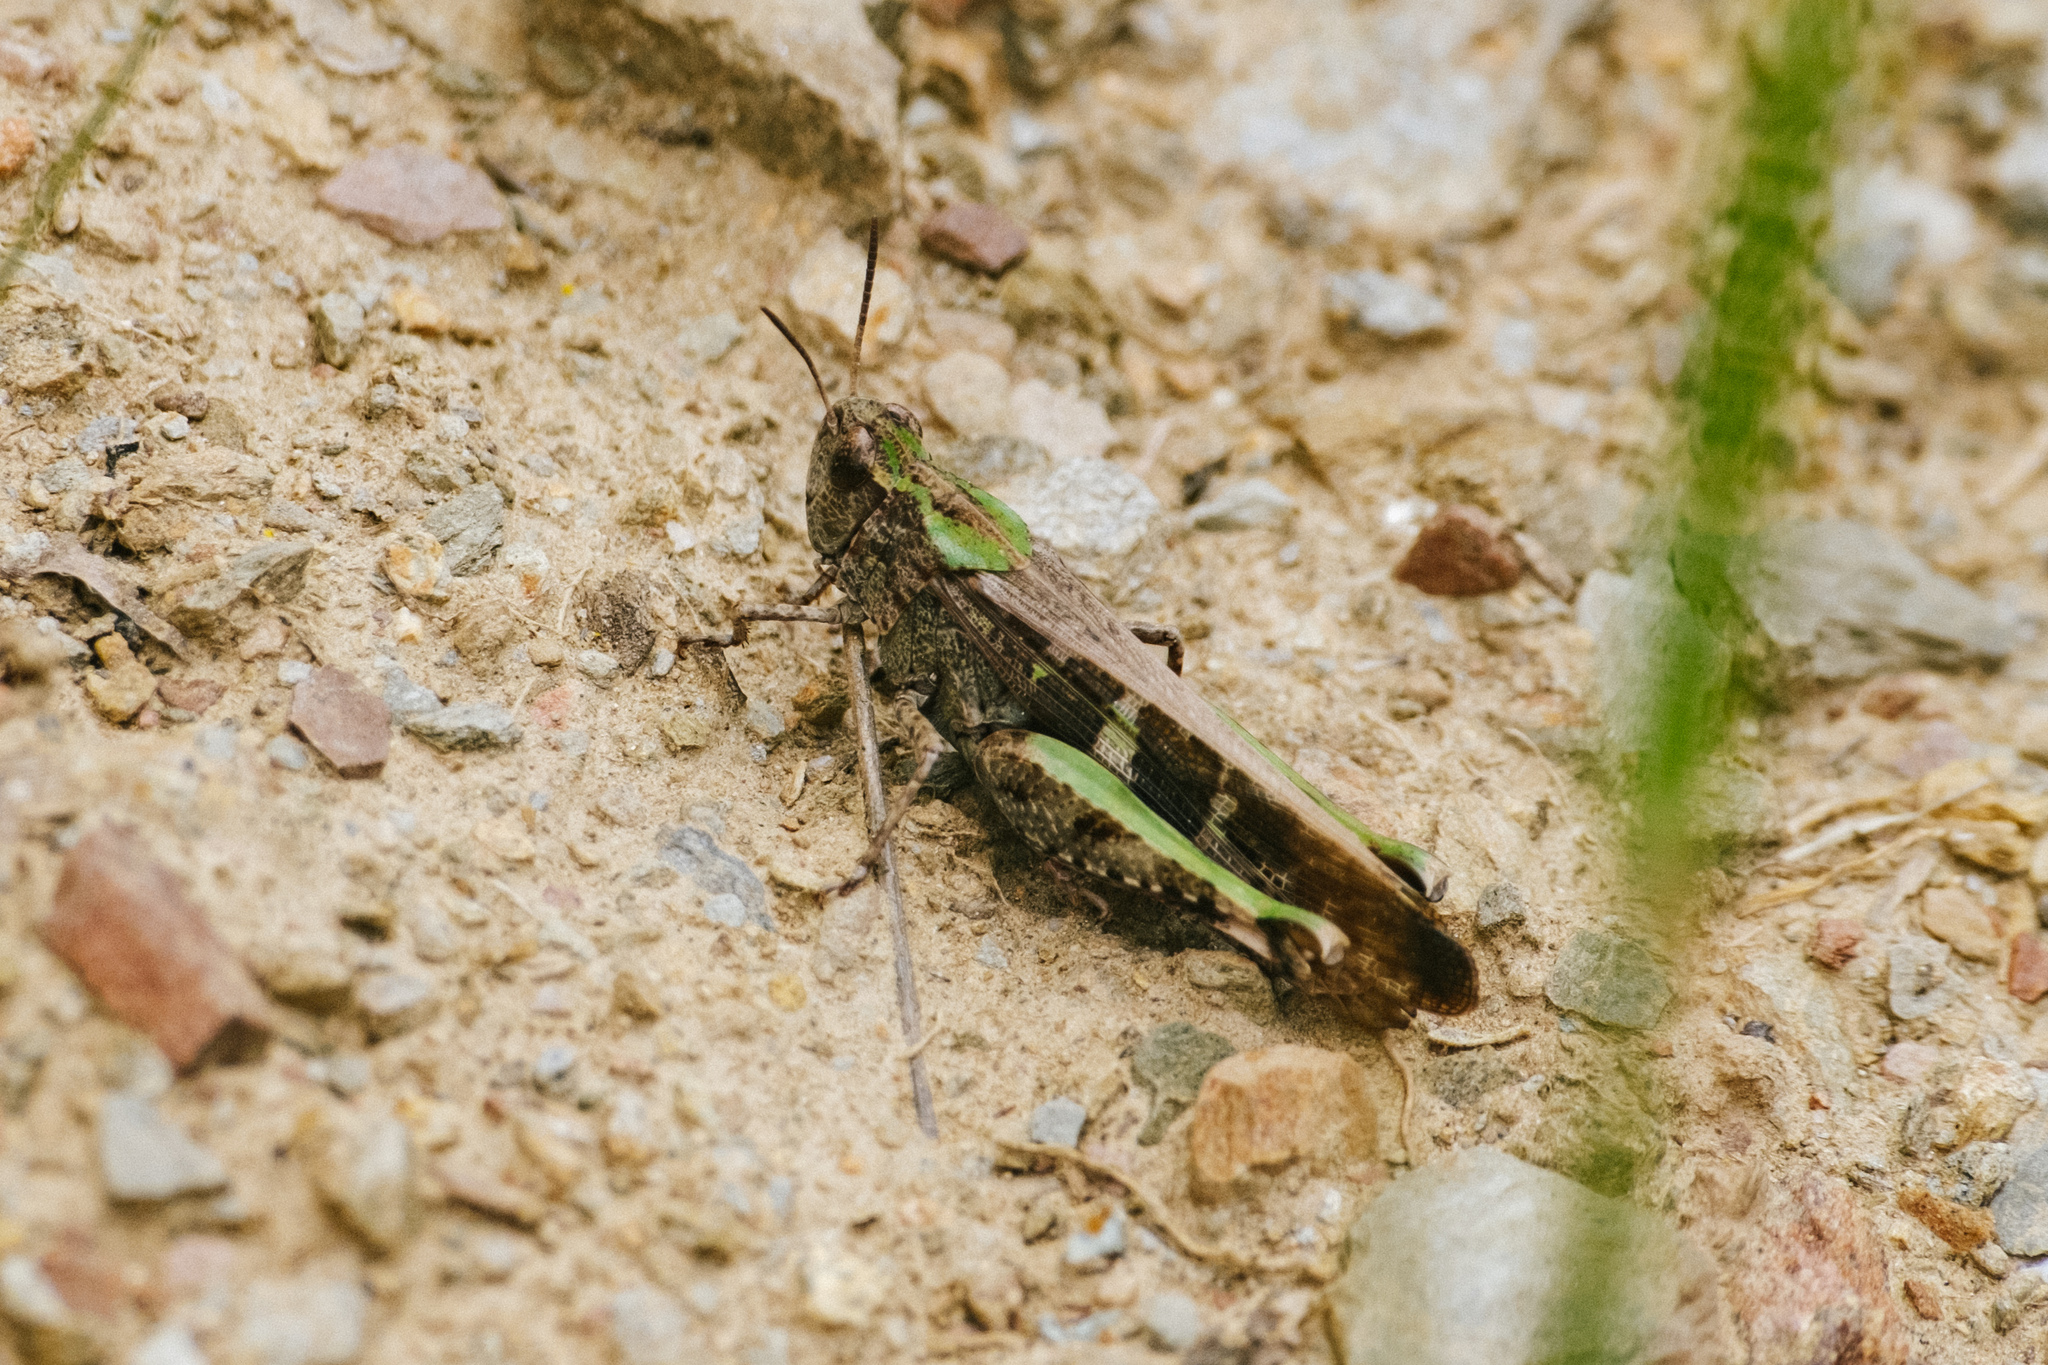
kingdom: Animalia
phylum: Arthropoda
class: Insecta
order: Orthoptera
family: Acrididae
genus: Aiolopus
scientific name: Aiolopus strepens
